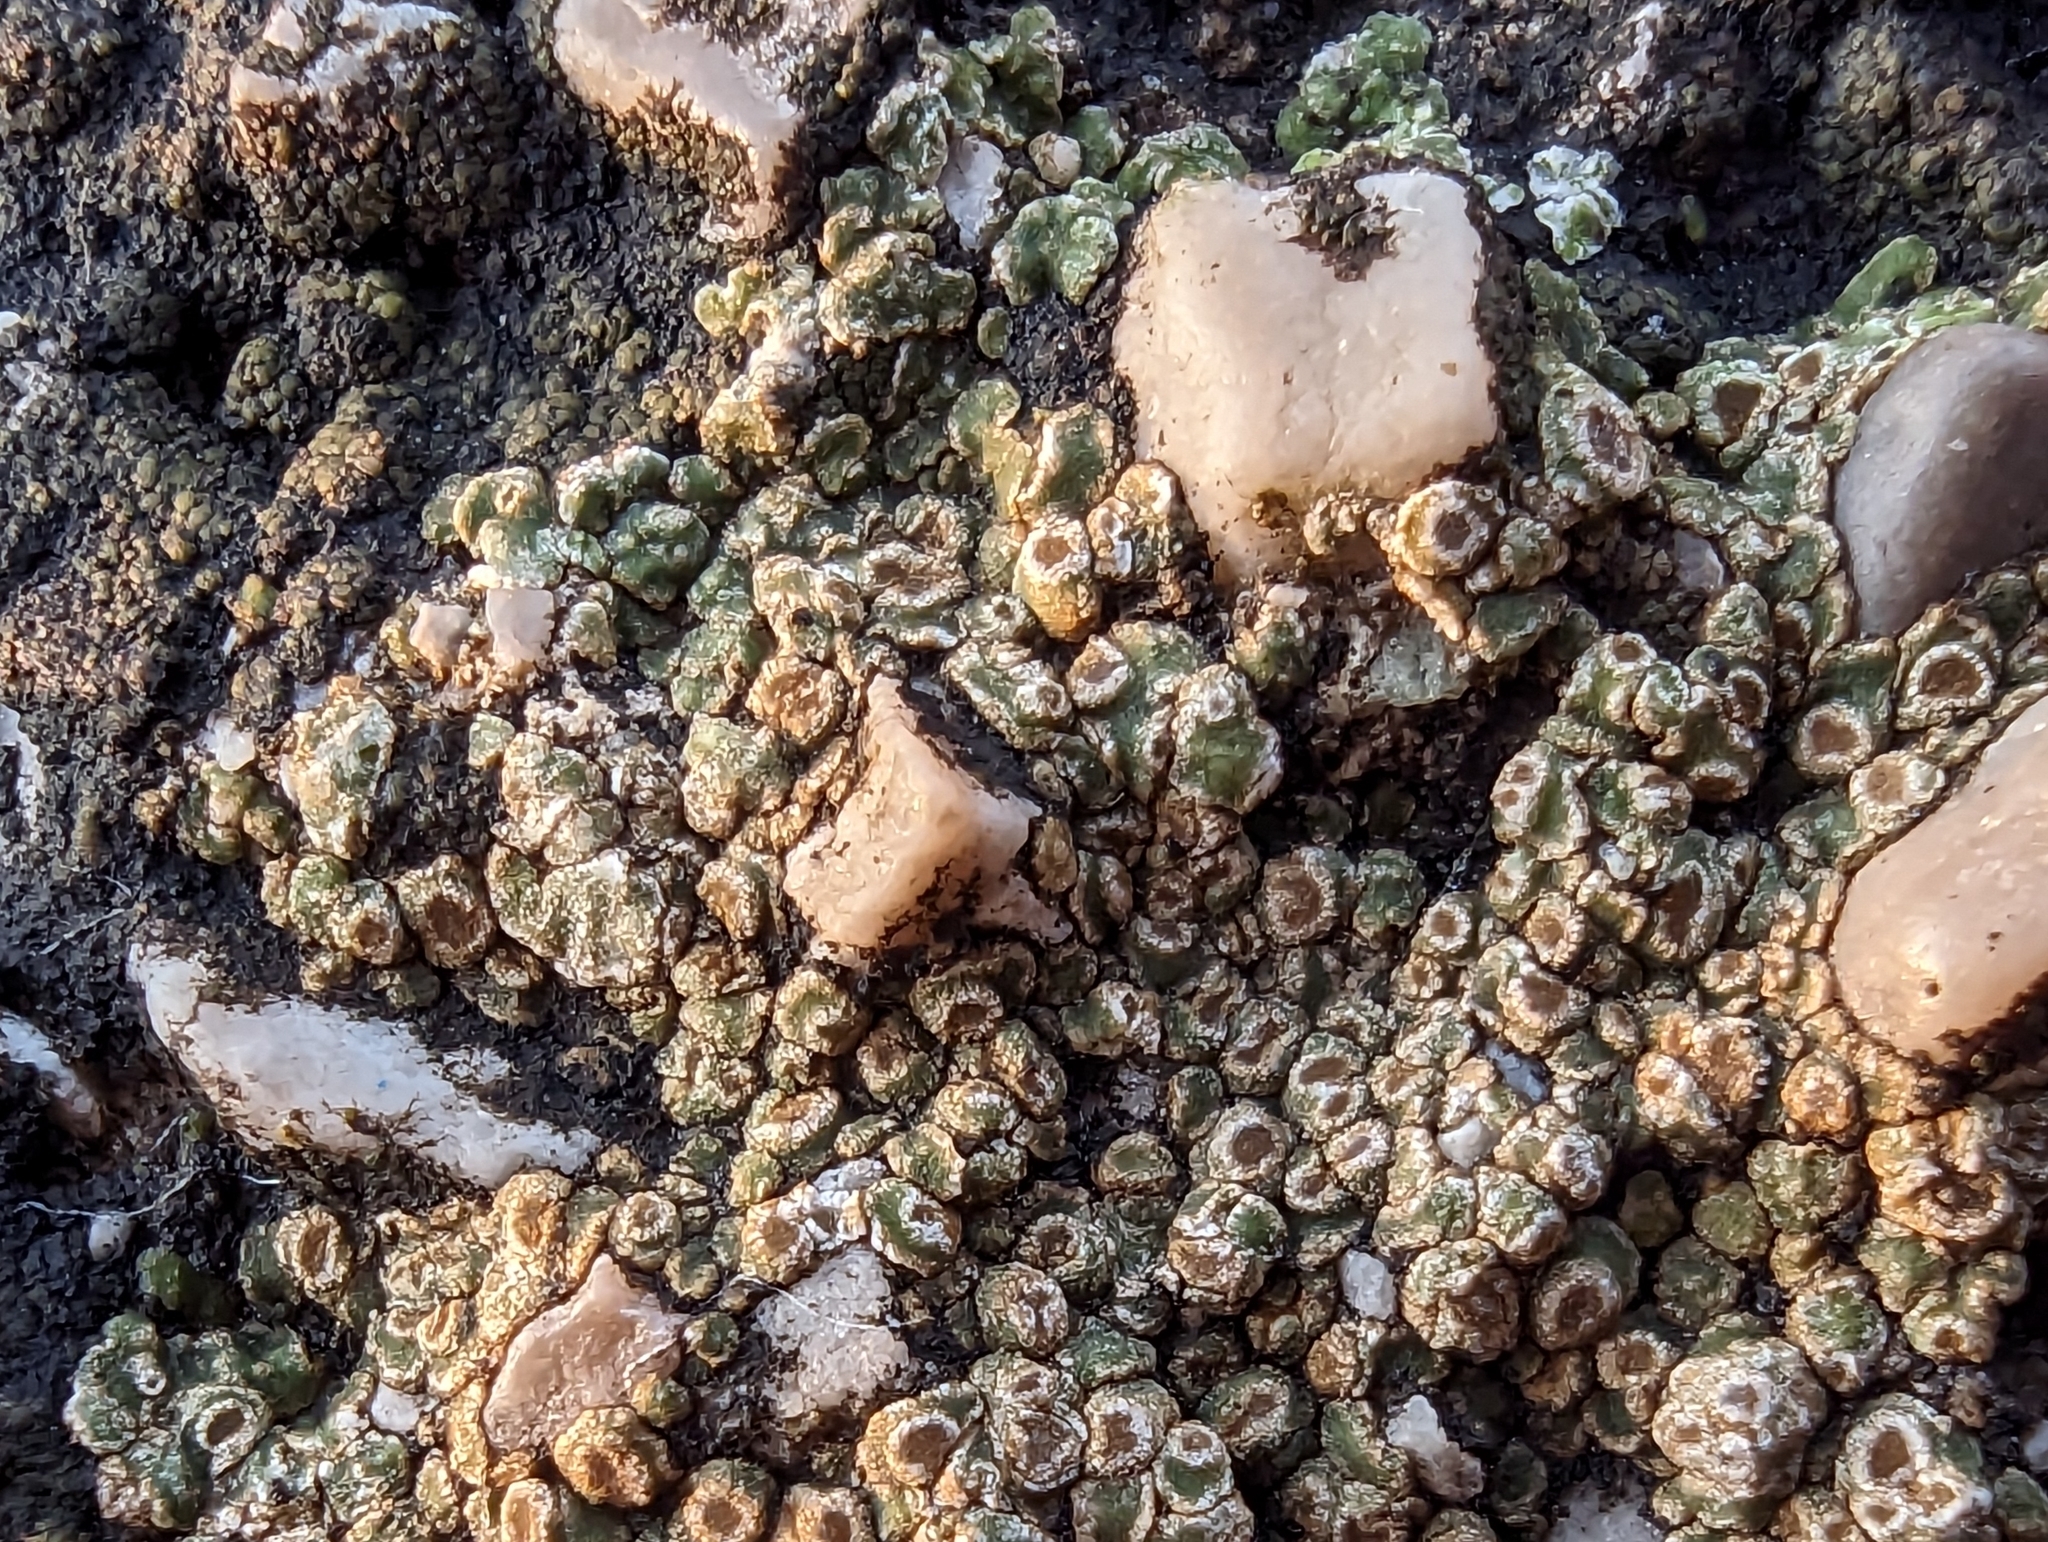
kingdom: Fungi
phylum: Ascomycota
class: Lecanoromycetes
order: Pertusariales
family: Megasporaceae
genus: Circinaria
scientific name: Circinaria contorta
